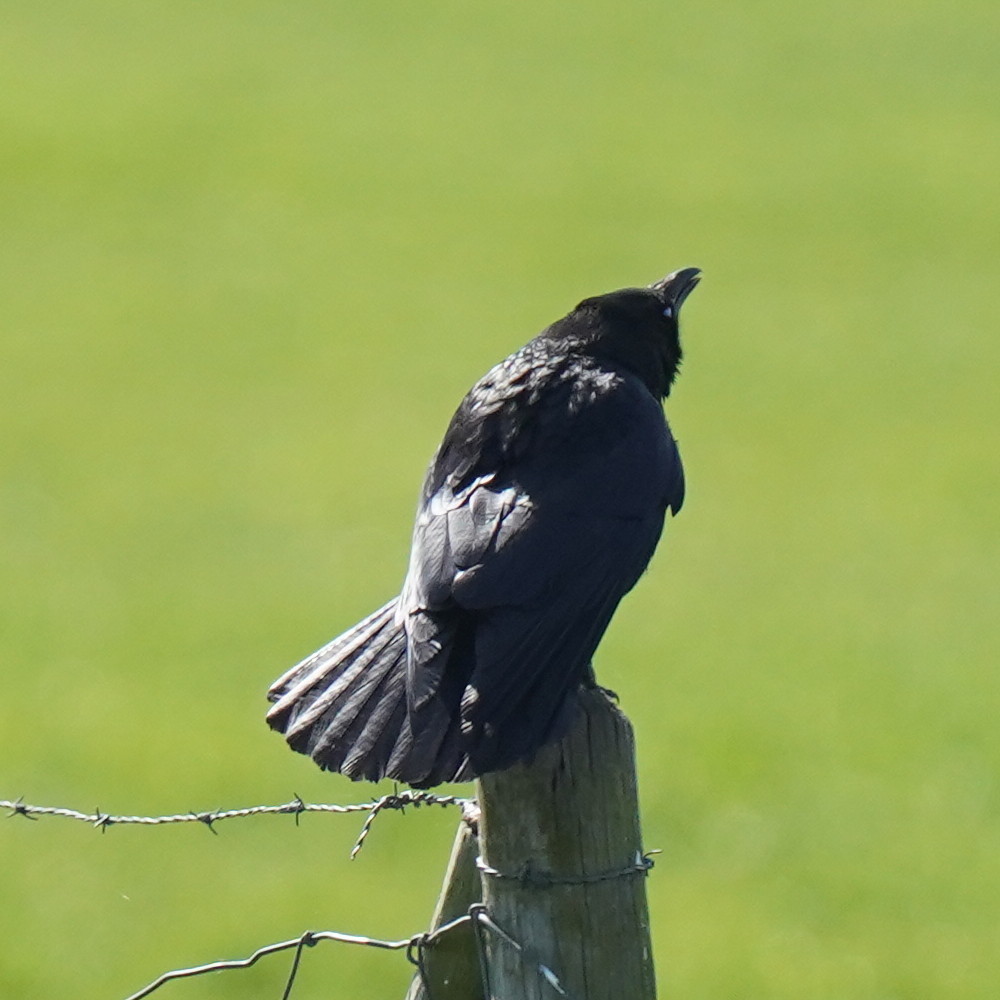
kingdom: Animalia
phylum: Chordata
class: Aves
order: Passeriformes
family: Corvidae
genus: Corvus
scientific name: Corvus corone
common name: Carrion crow
